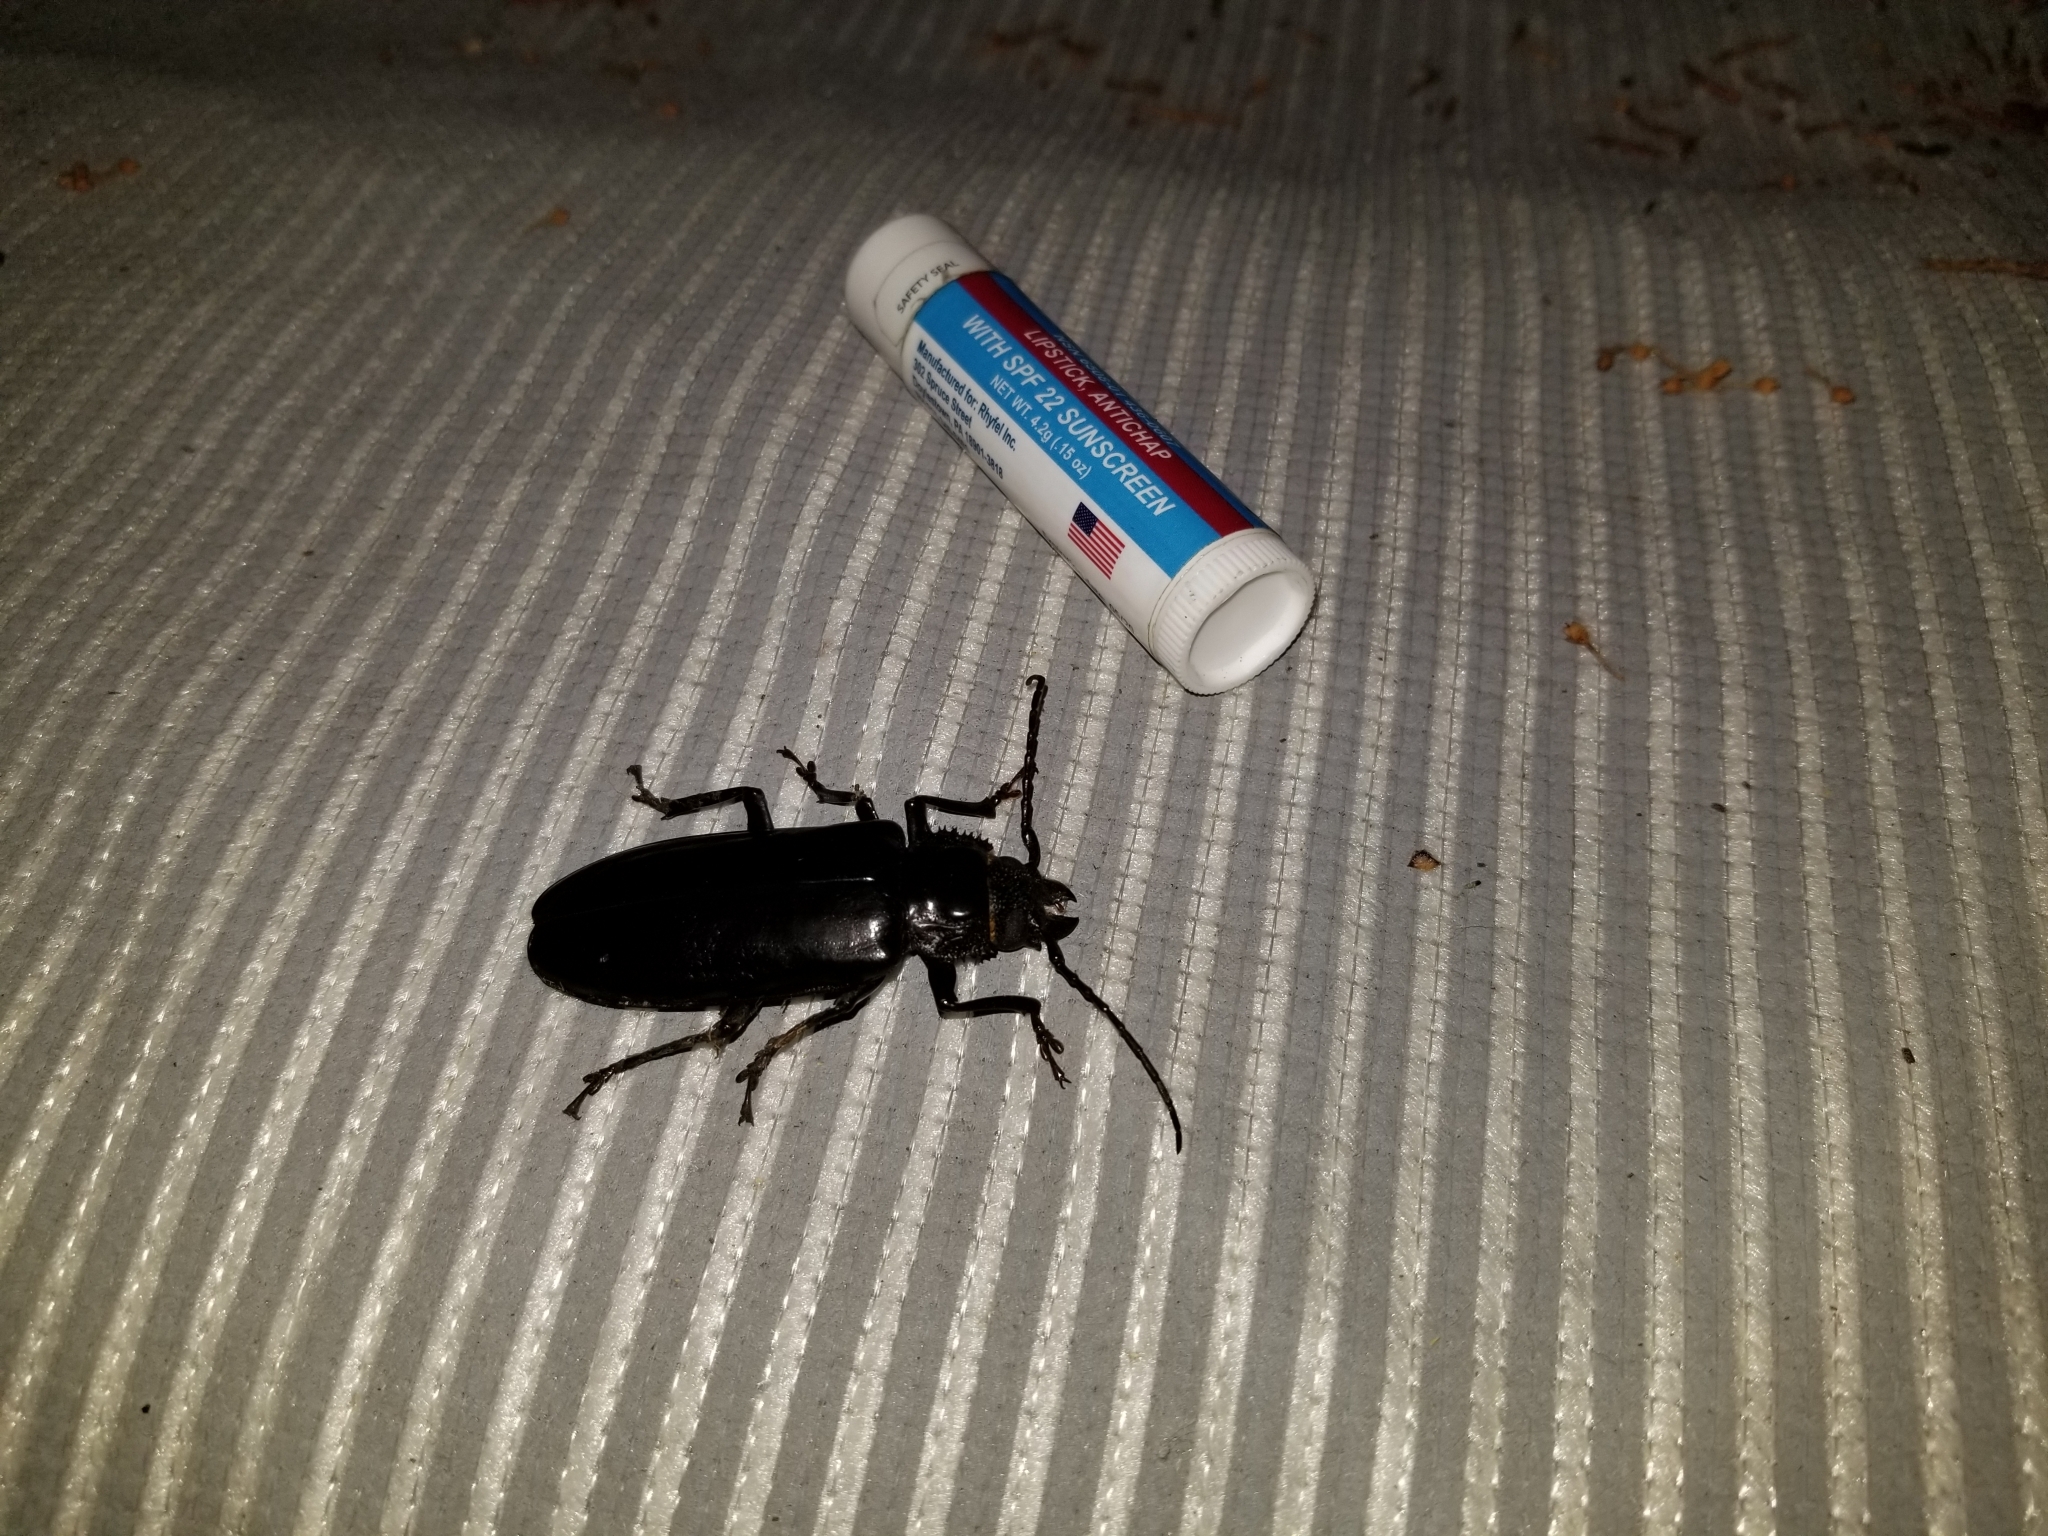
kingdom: Animalia
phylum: Arthropoda
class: Insecta
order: Coleoptera
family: Cerambycidae
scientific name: Cerambycidae
